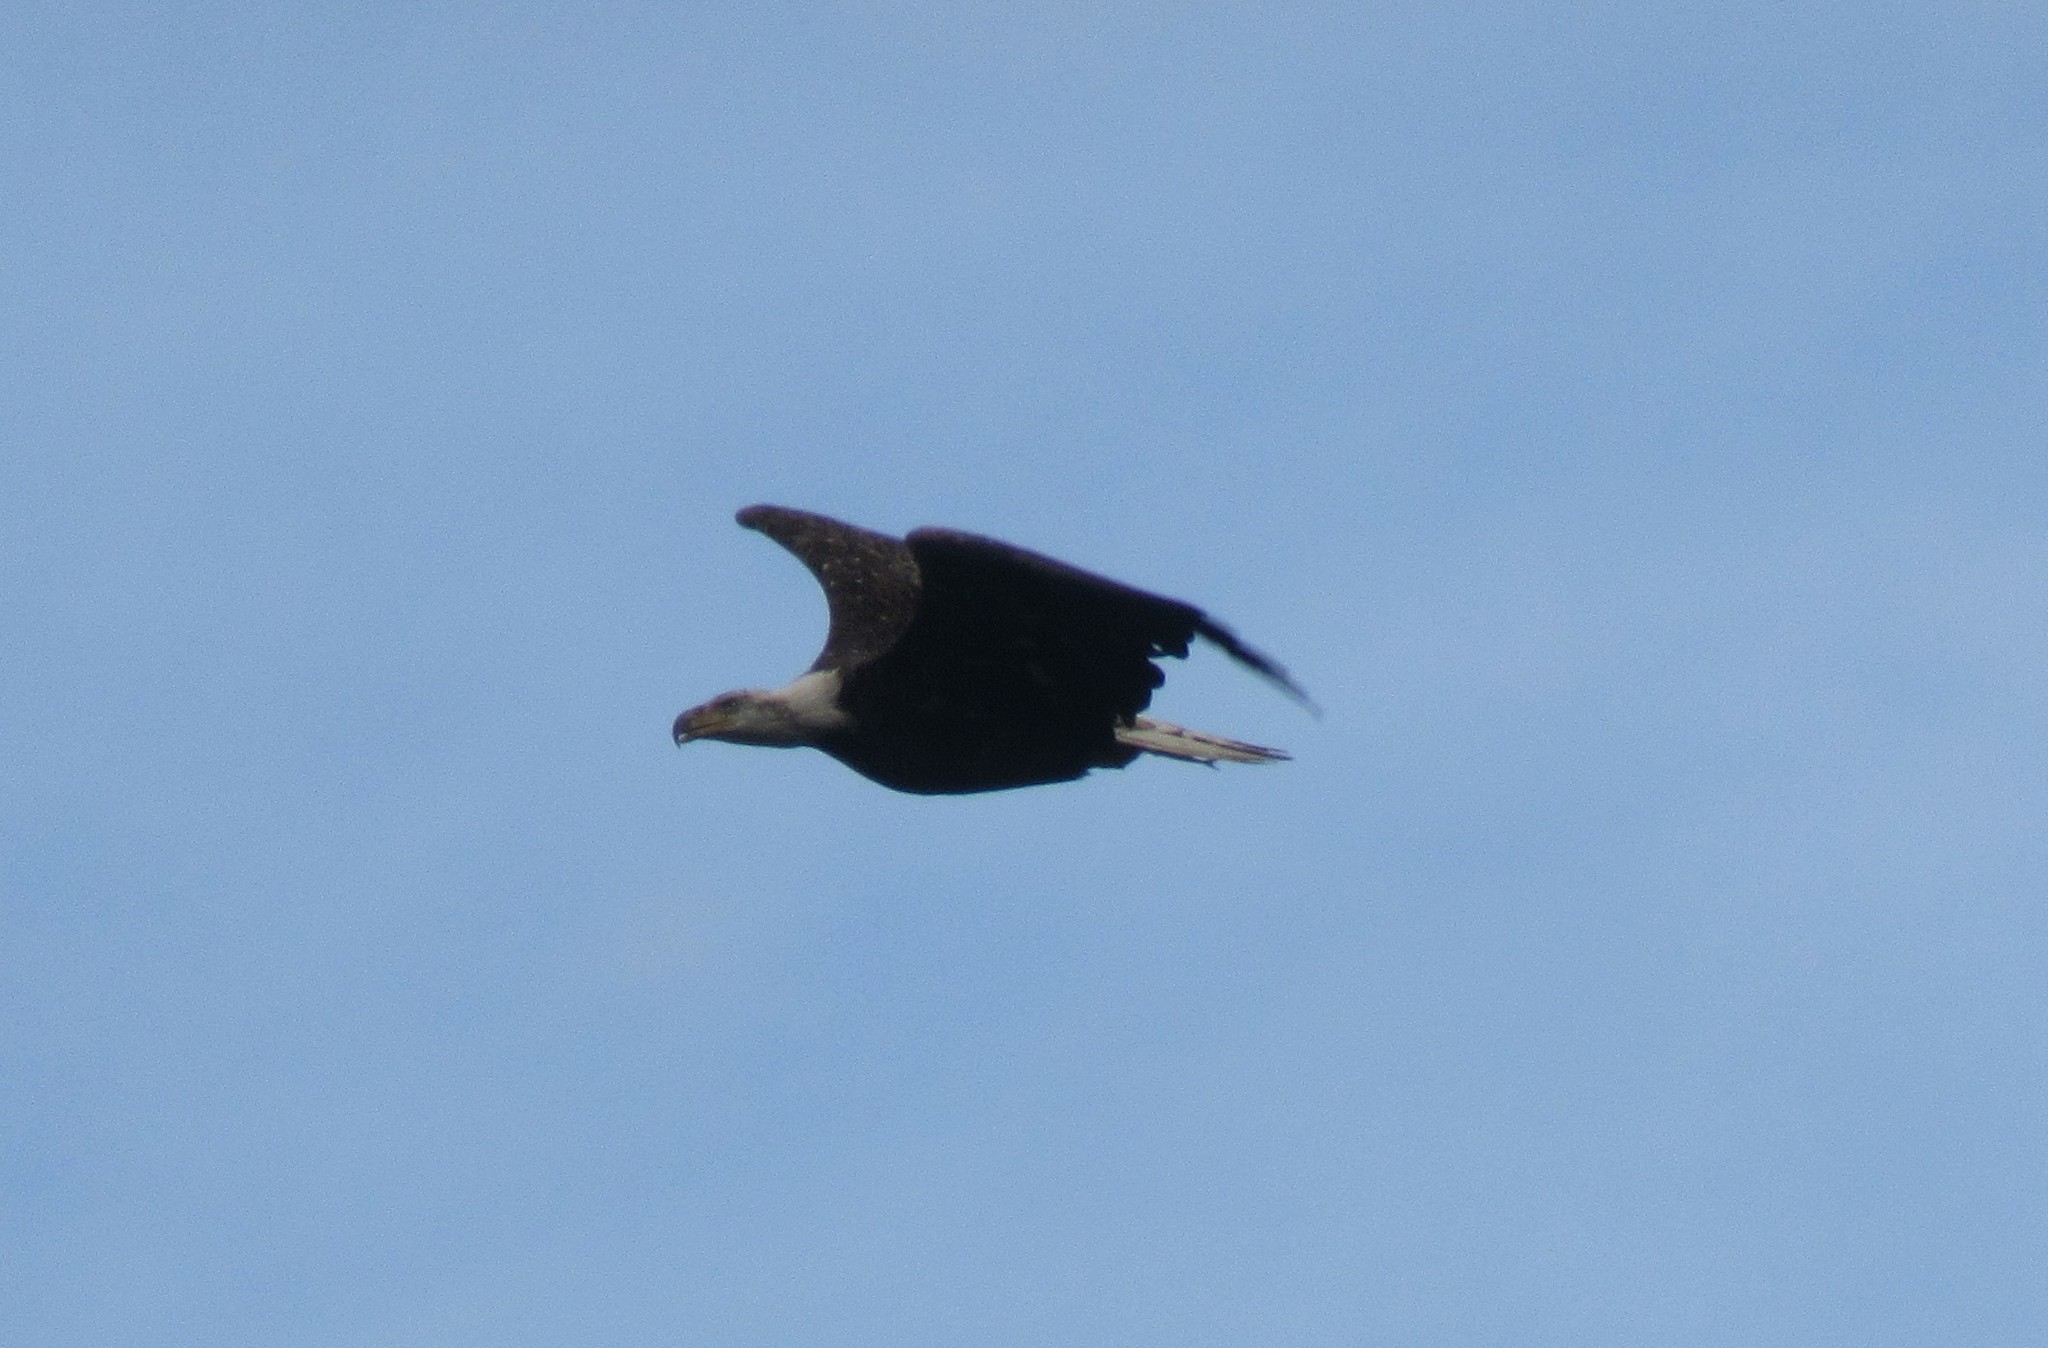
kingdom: Animalia
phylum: Chordata
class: Aves
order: Accipitriformes
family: Accipitridae
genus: Haliaeetus
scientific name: Haliaeetus leucocephalus
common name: Bald eagle
